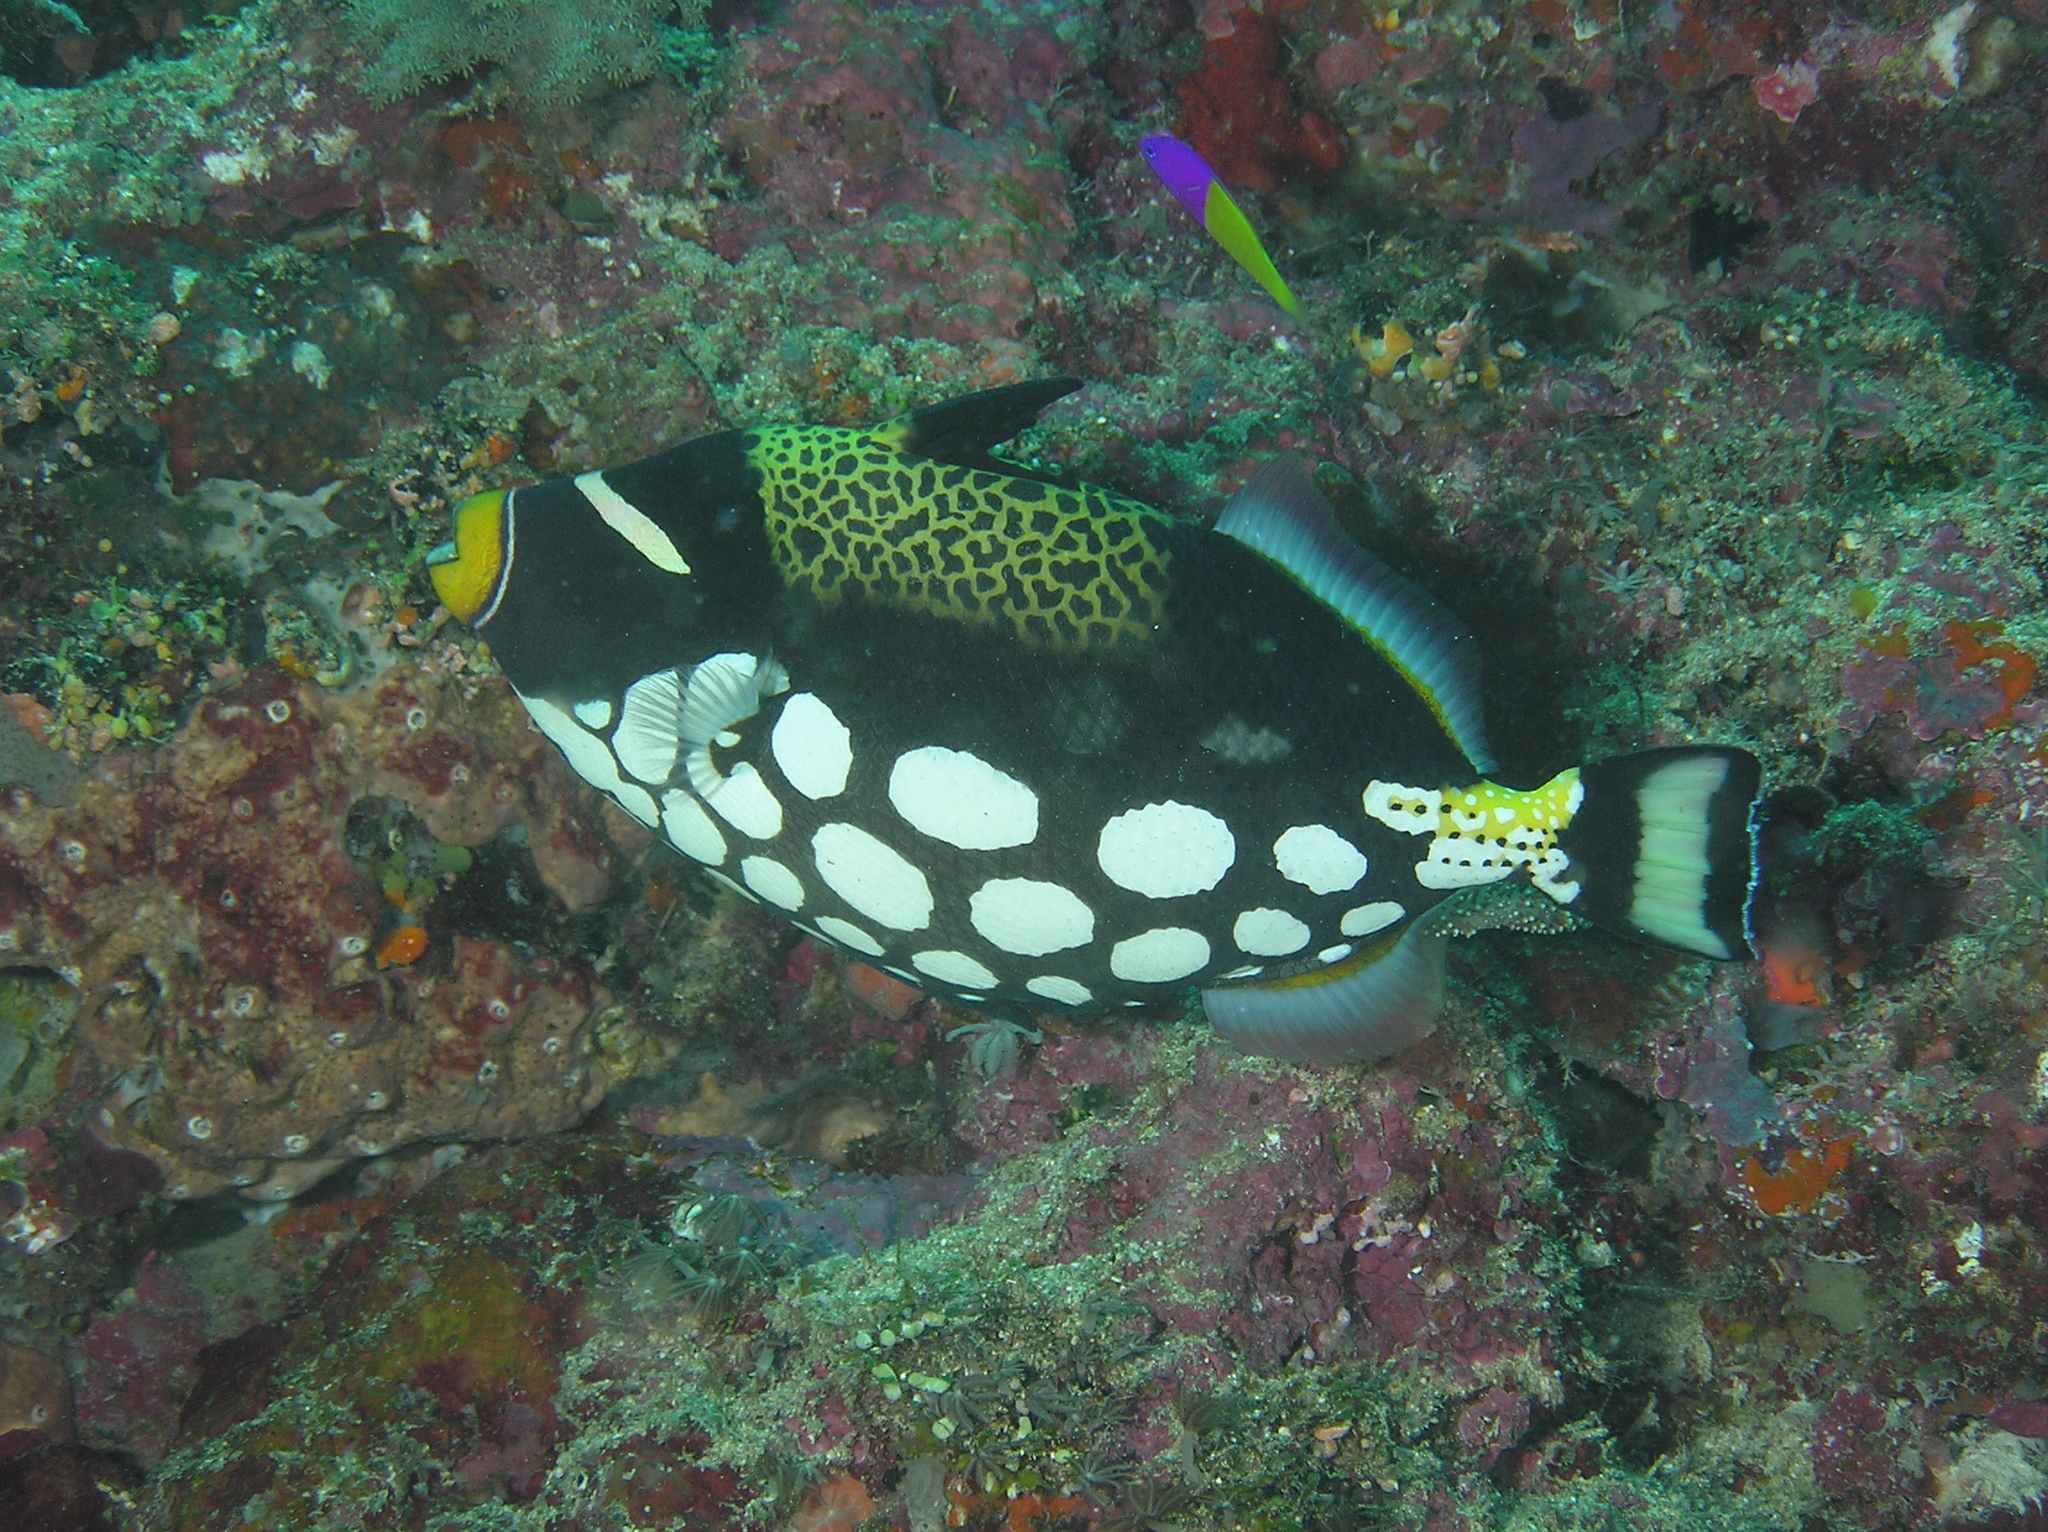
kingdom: Animalia
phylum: Chordata
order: Perciformes
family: Pseudochromidae
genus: Pictichromis
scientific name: Pictichromis paccagnellae
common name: Royal dottyback
